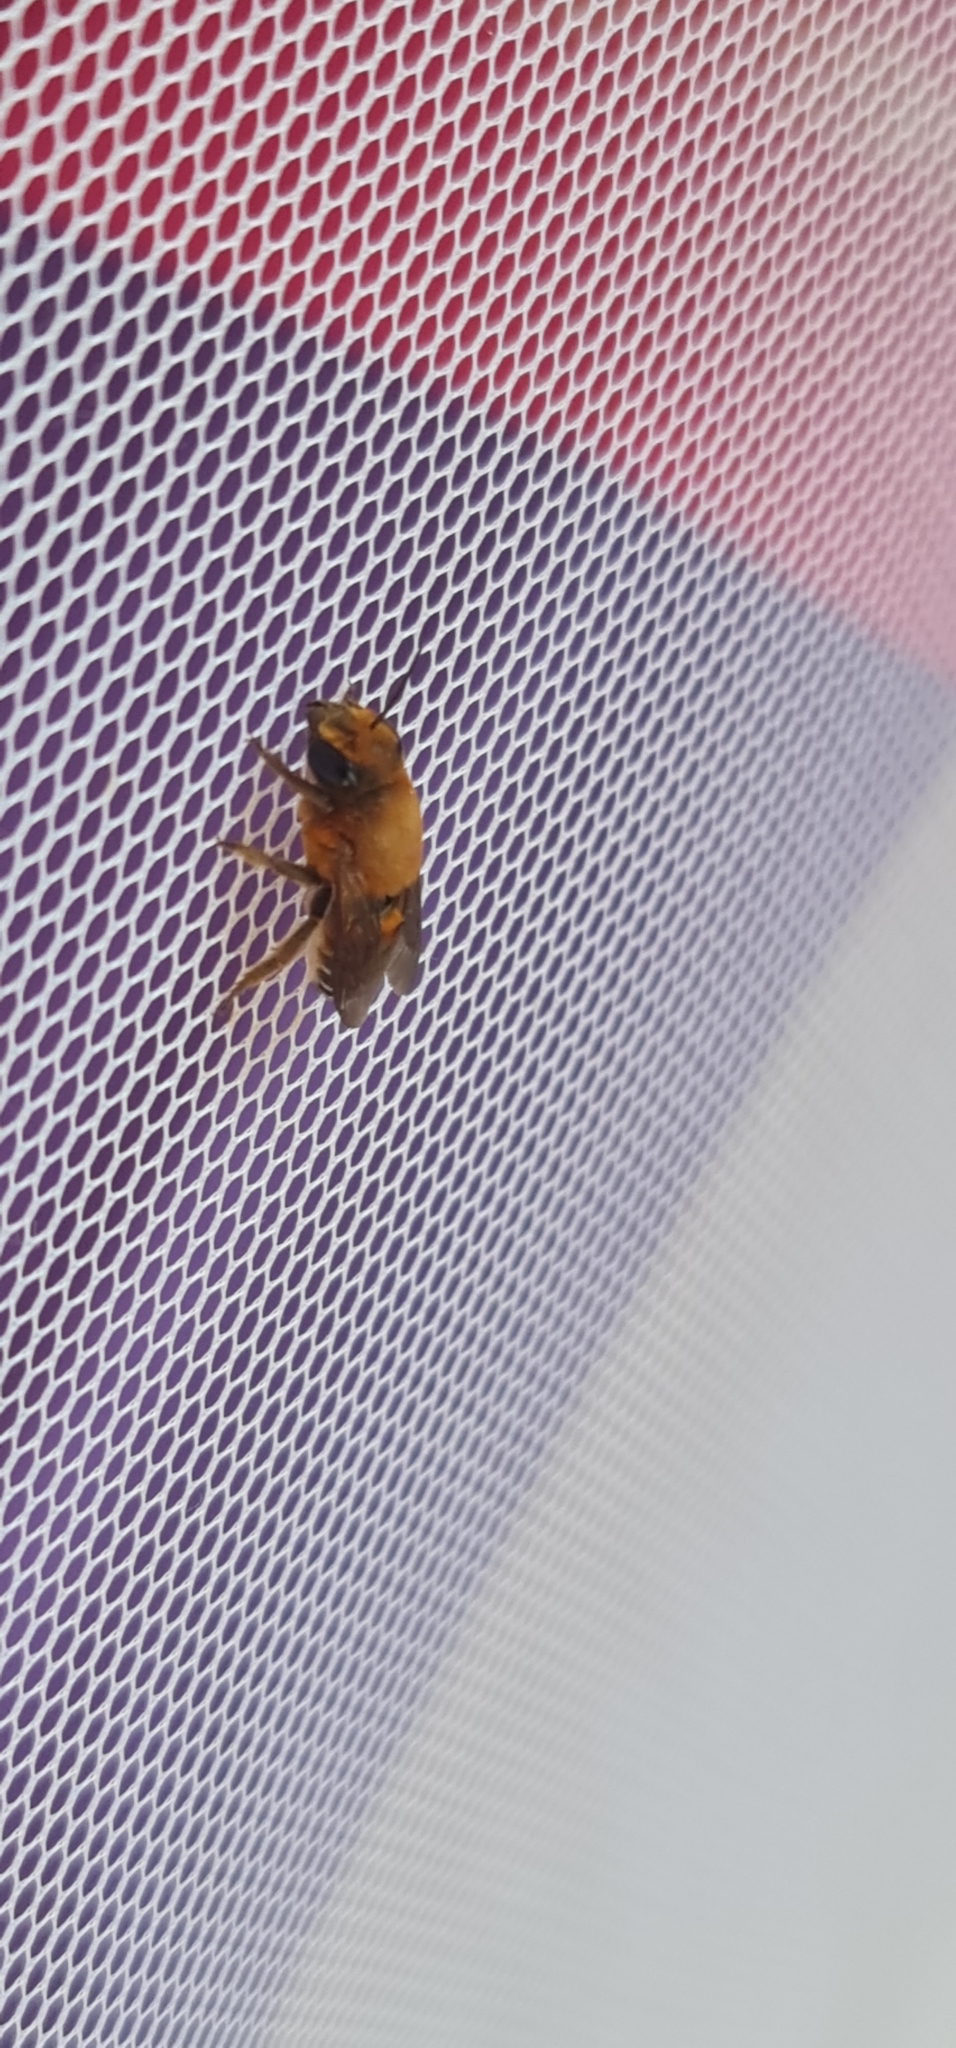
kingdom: Animalia
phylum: Arthropoda
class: Insecta
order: Hymenoptera
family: Megachilidae
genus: Megachile
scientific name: Megachile lanata
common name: Wooly wall bee
